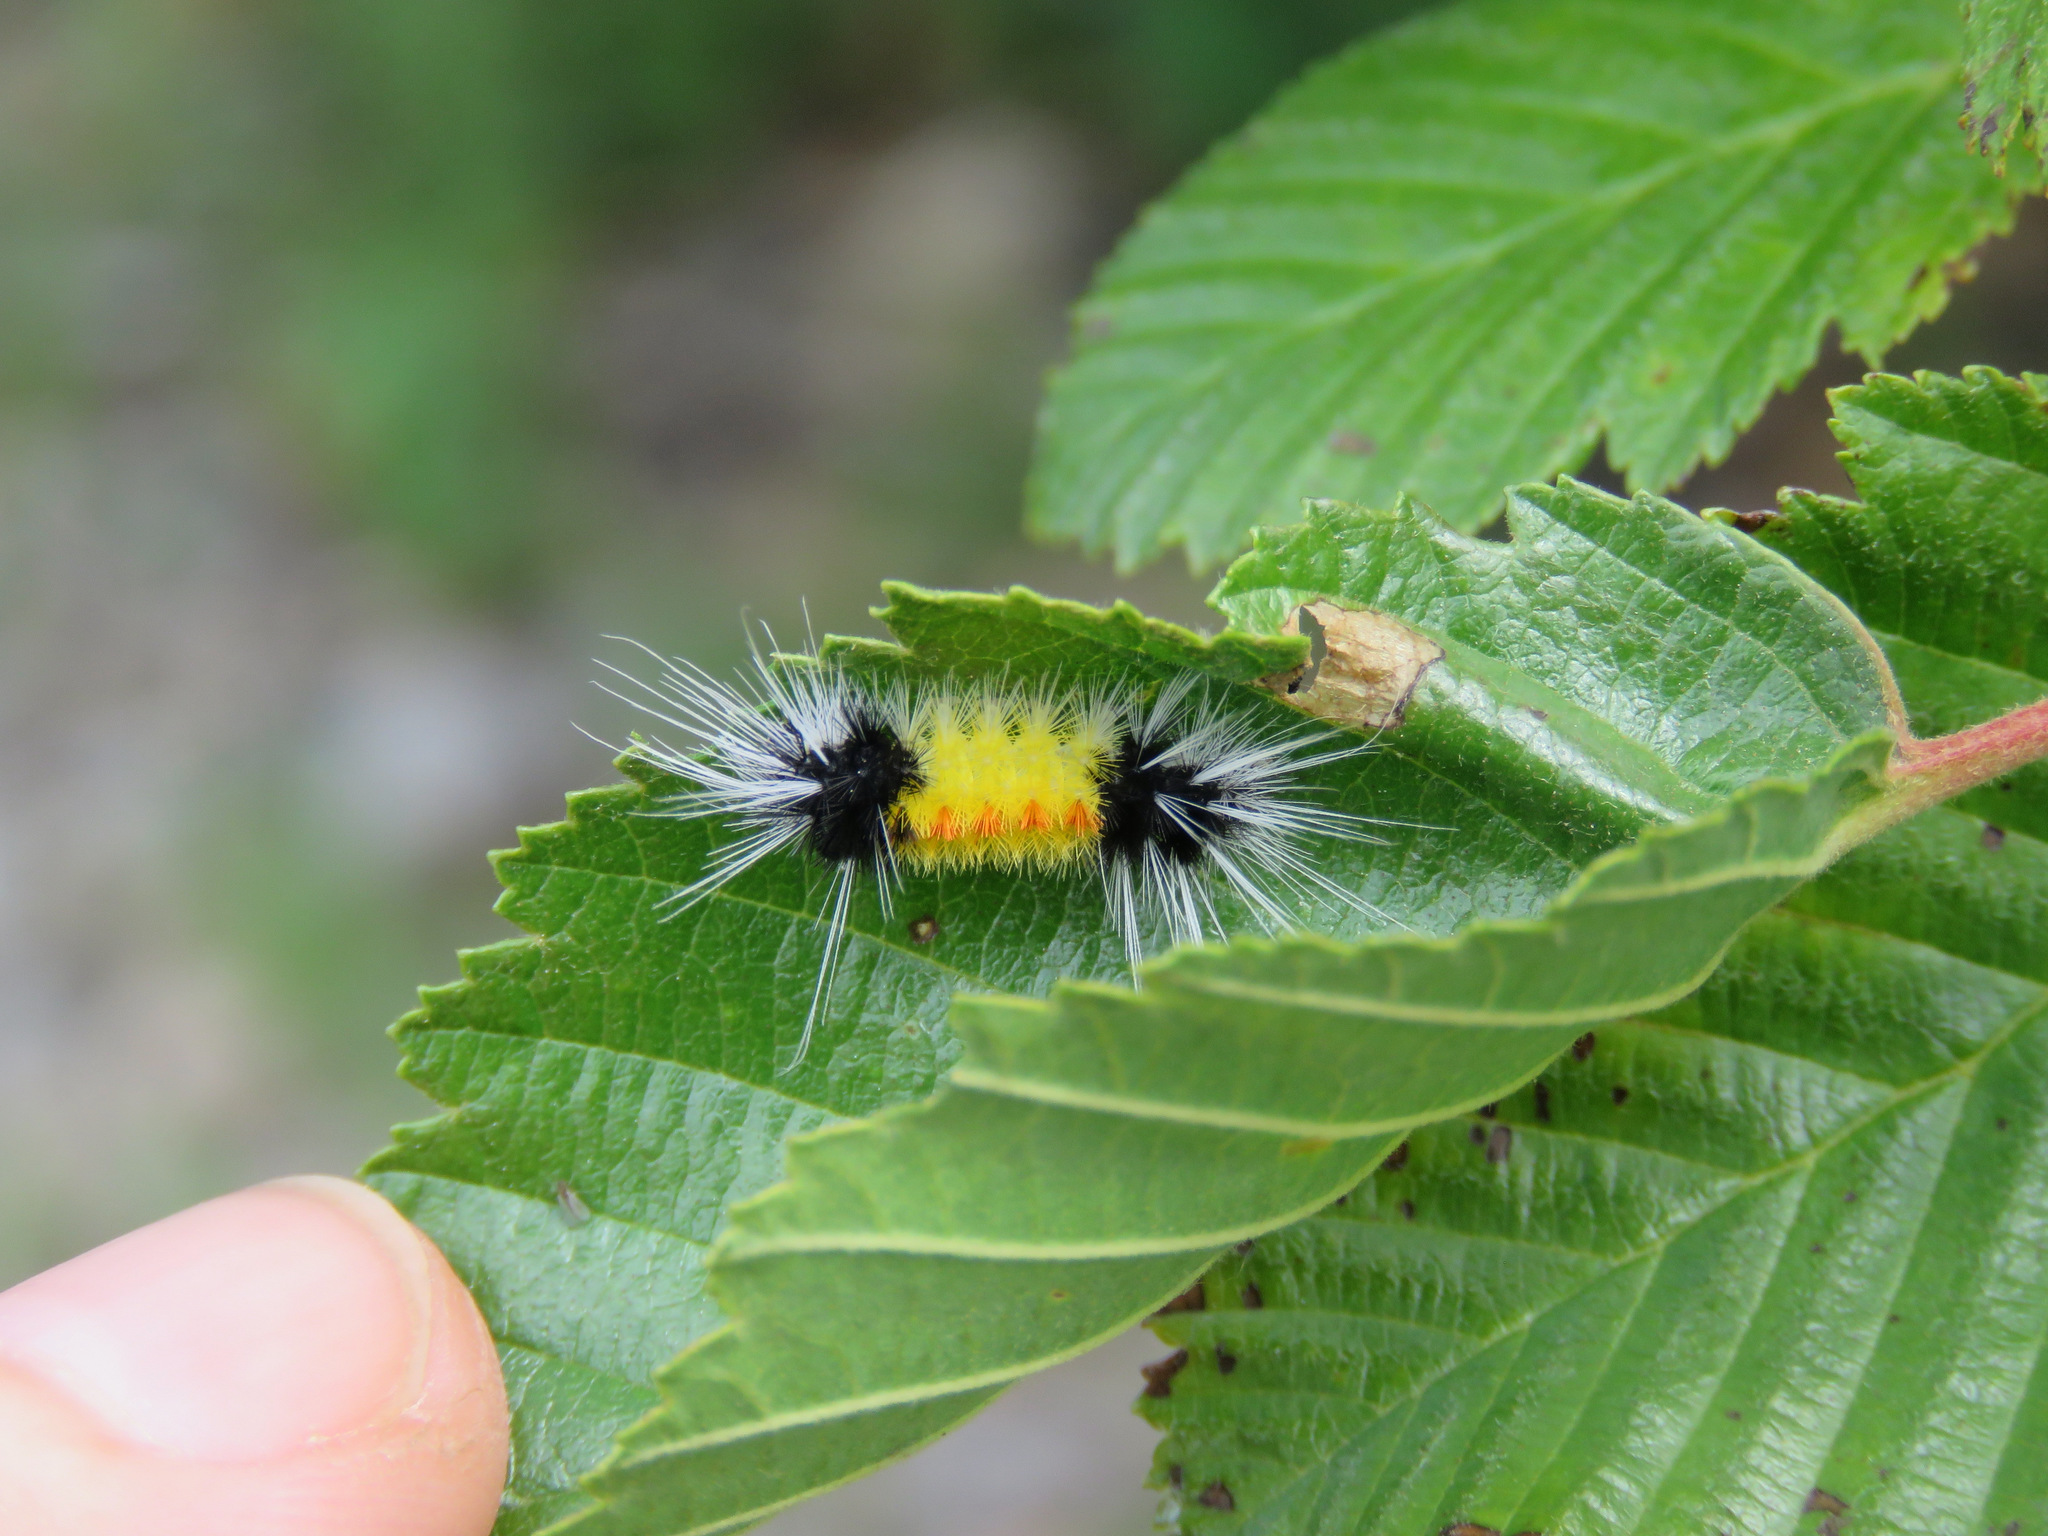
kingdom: Animalia
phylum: Arthropoda
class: Insecta
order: Lepidoptera
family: Erebidae
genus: Lophocampa
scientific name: Lophocampa maculata
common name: Spotted tussock moth
